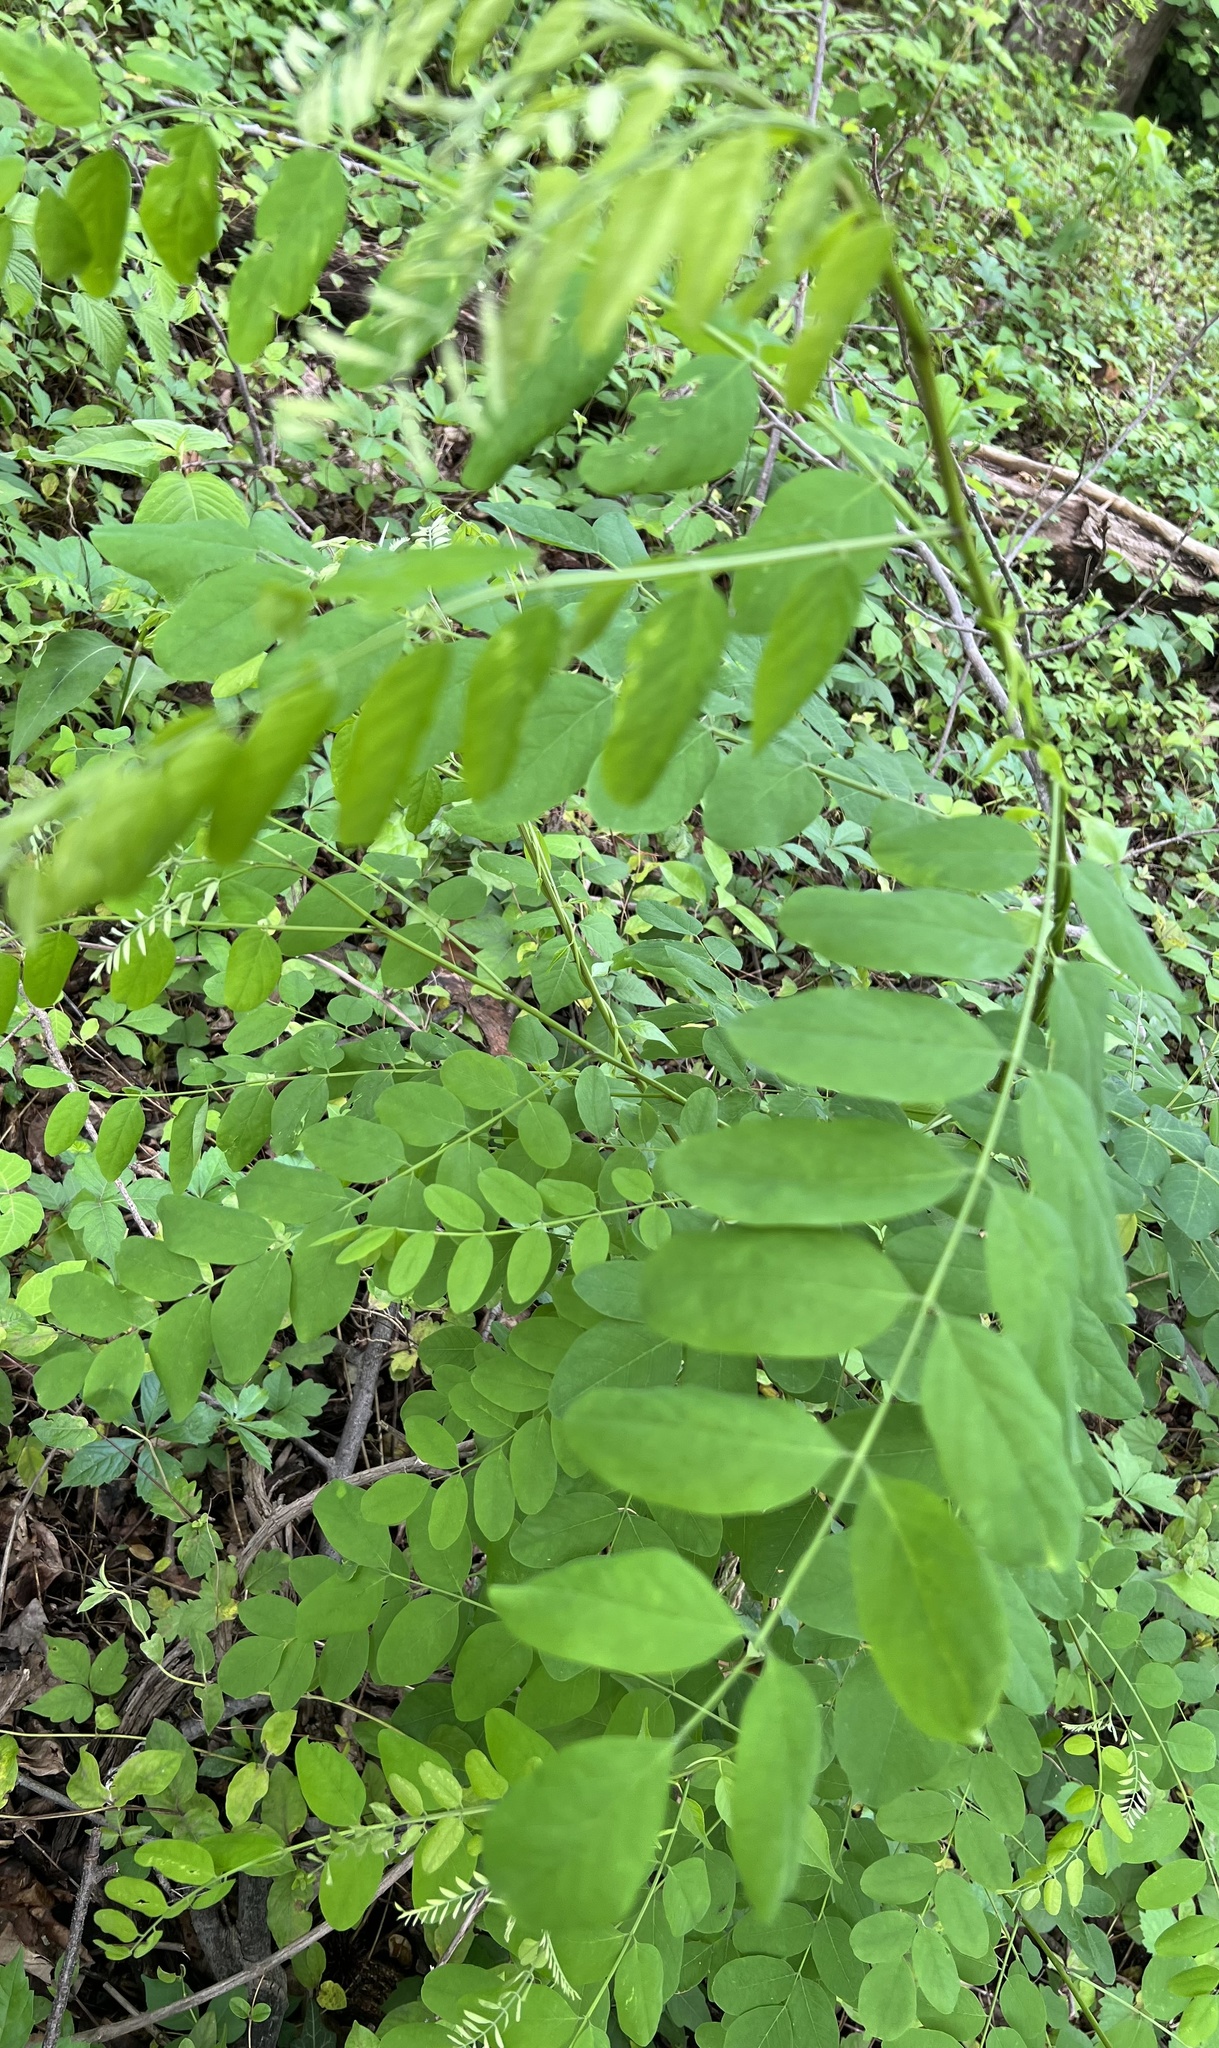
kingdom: Plantae
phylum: Tracheophyta
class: Magnoliopsida
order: Fabales
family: Fabaceae
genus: Robinia
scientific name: Robinia pseudoacacia
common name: Black locust
